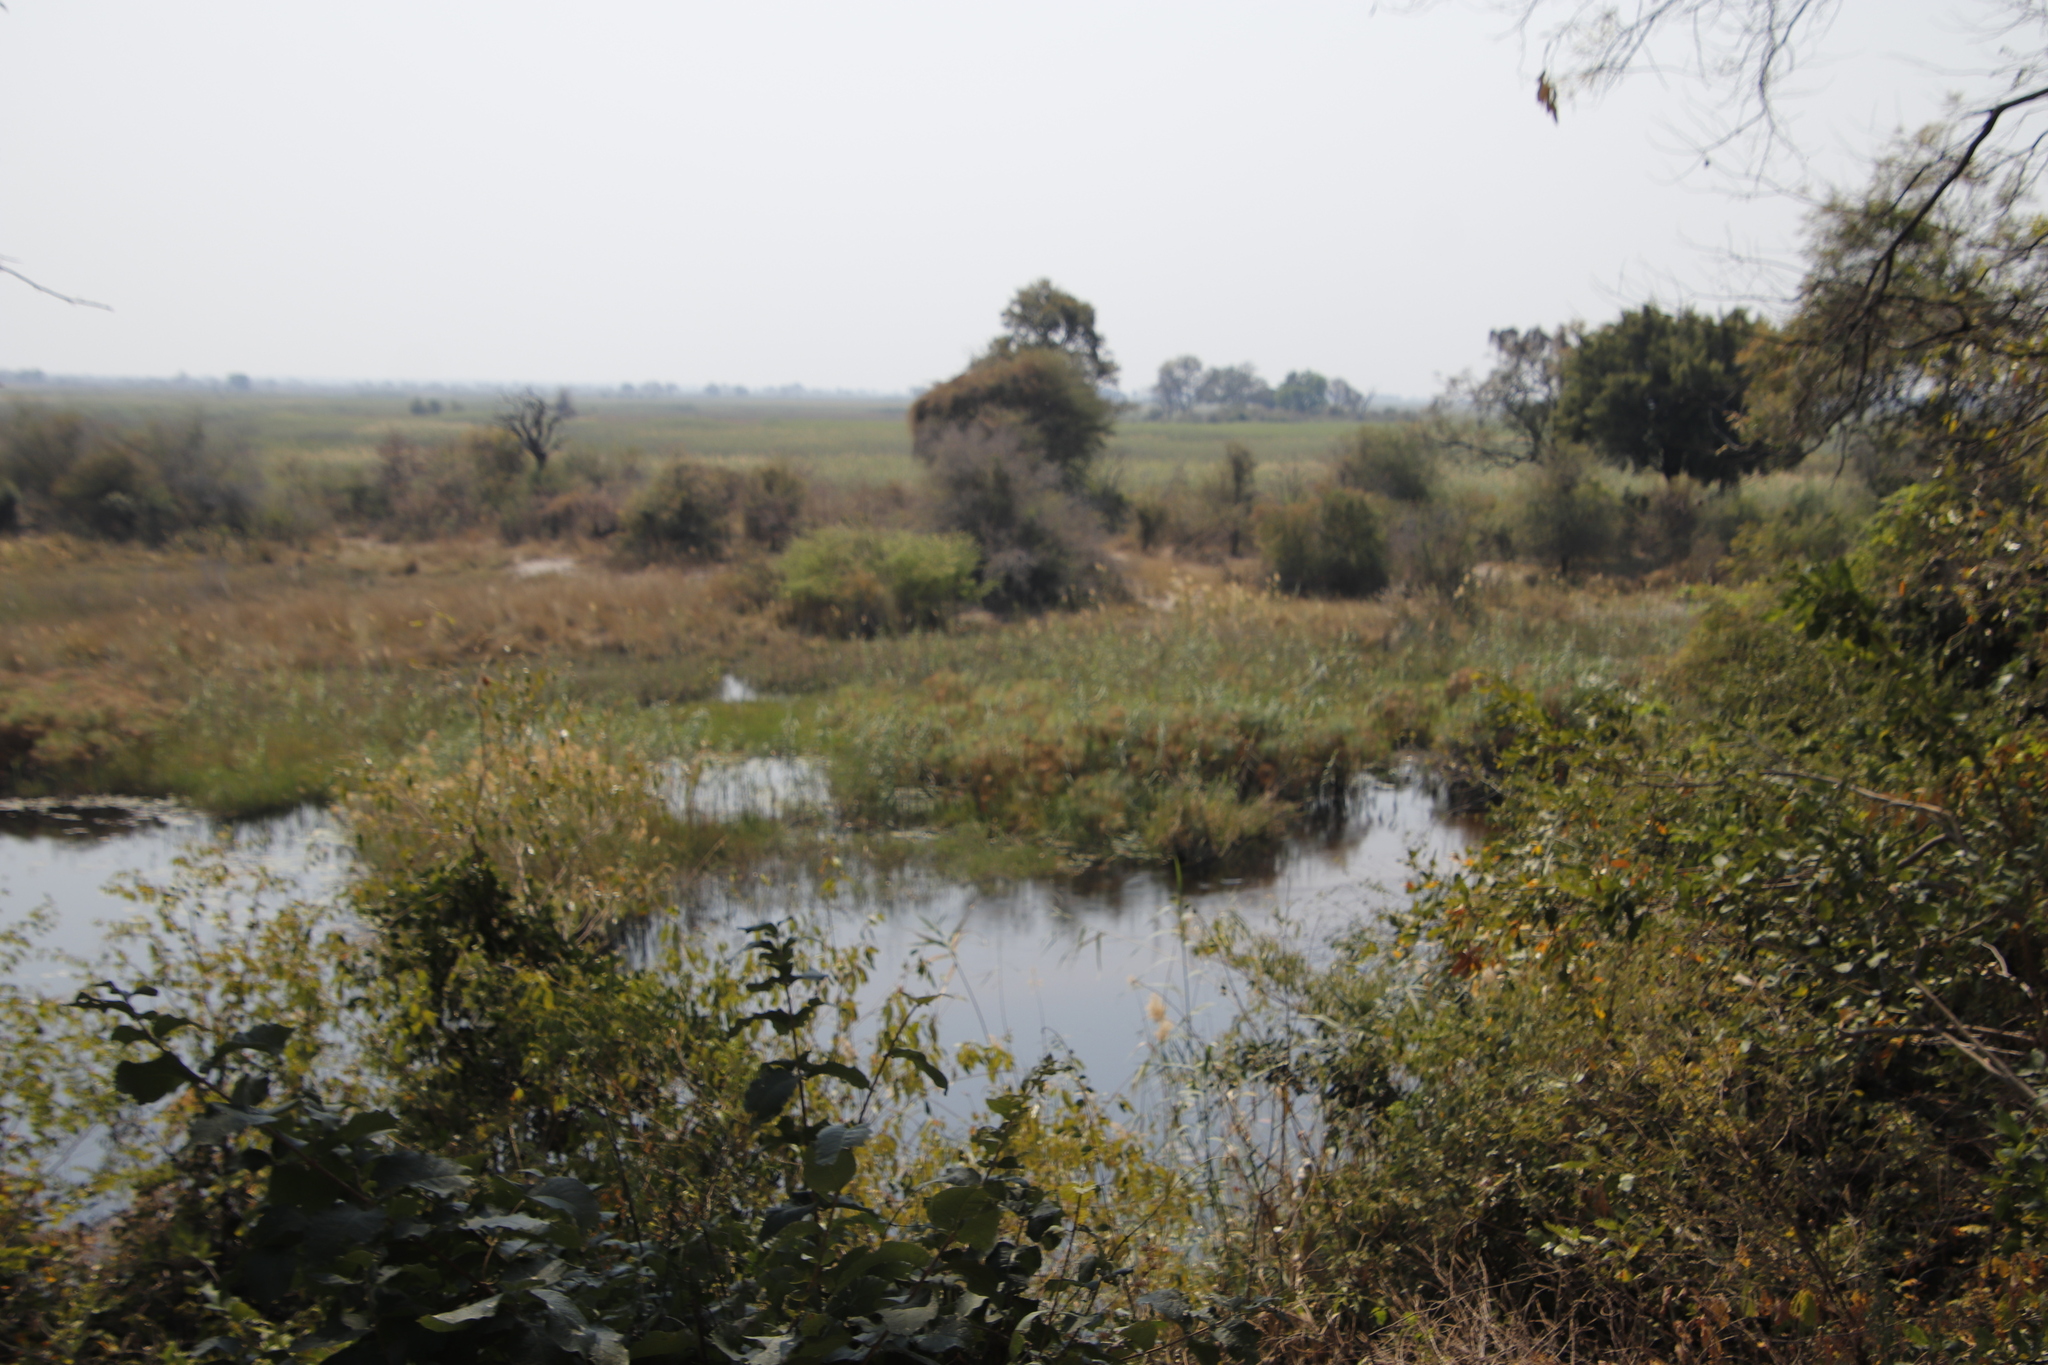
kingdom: Plantae
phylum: Tracheophyta
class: Liliopsida
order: Poales
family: Cyperaceae
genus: Cyperus
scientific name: Cyperus papyrus
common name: Papyrus
